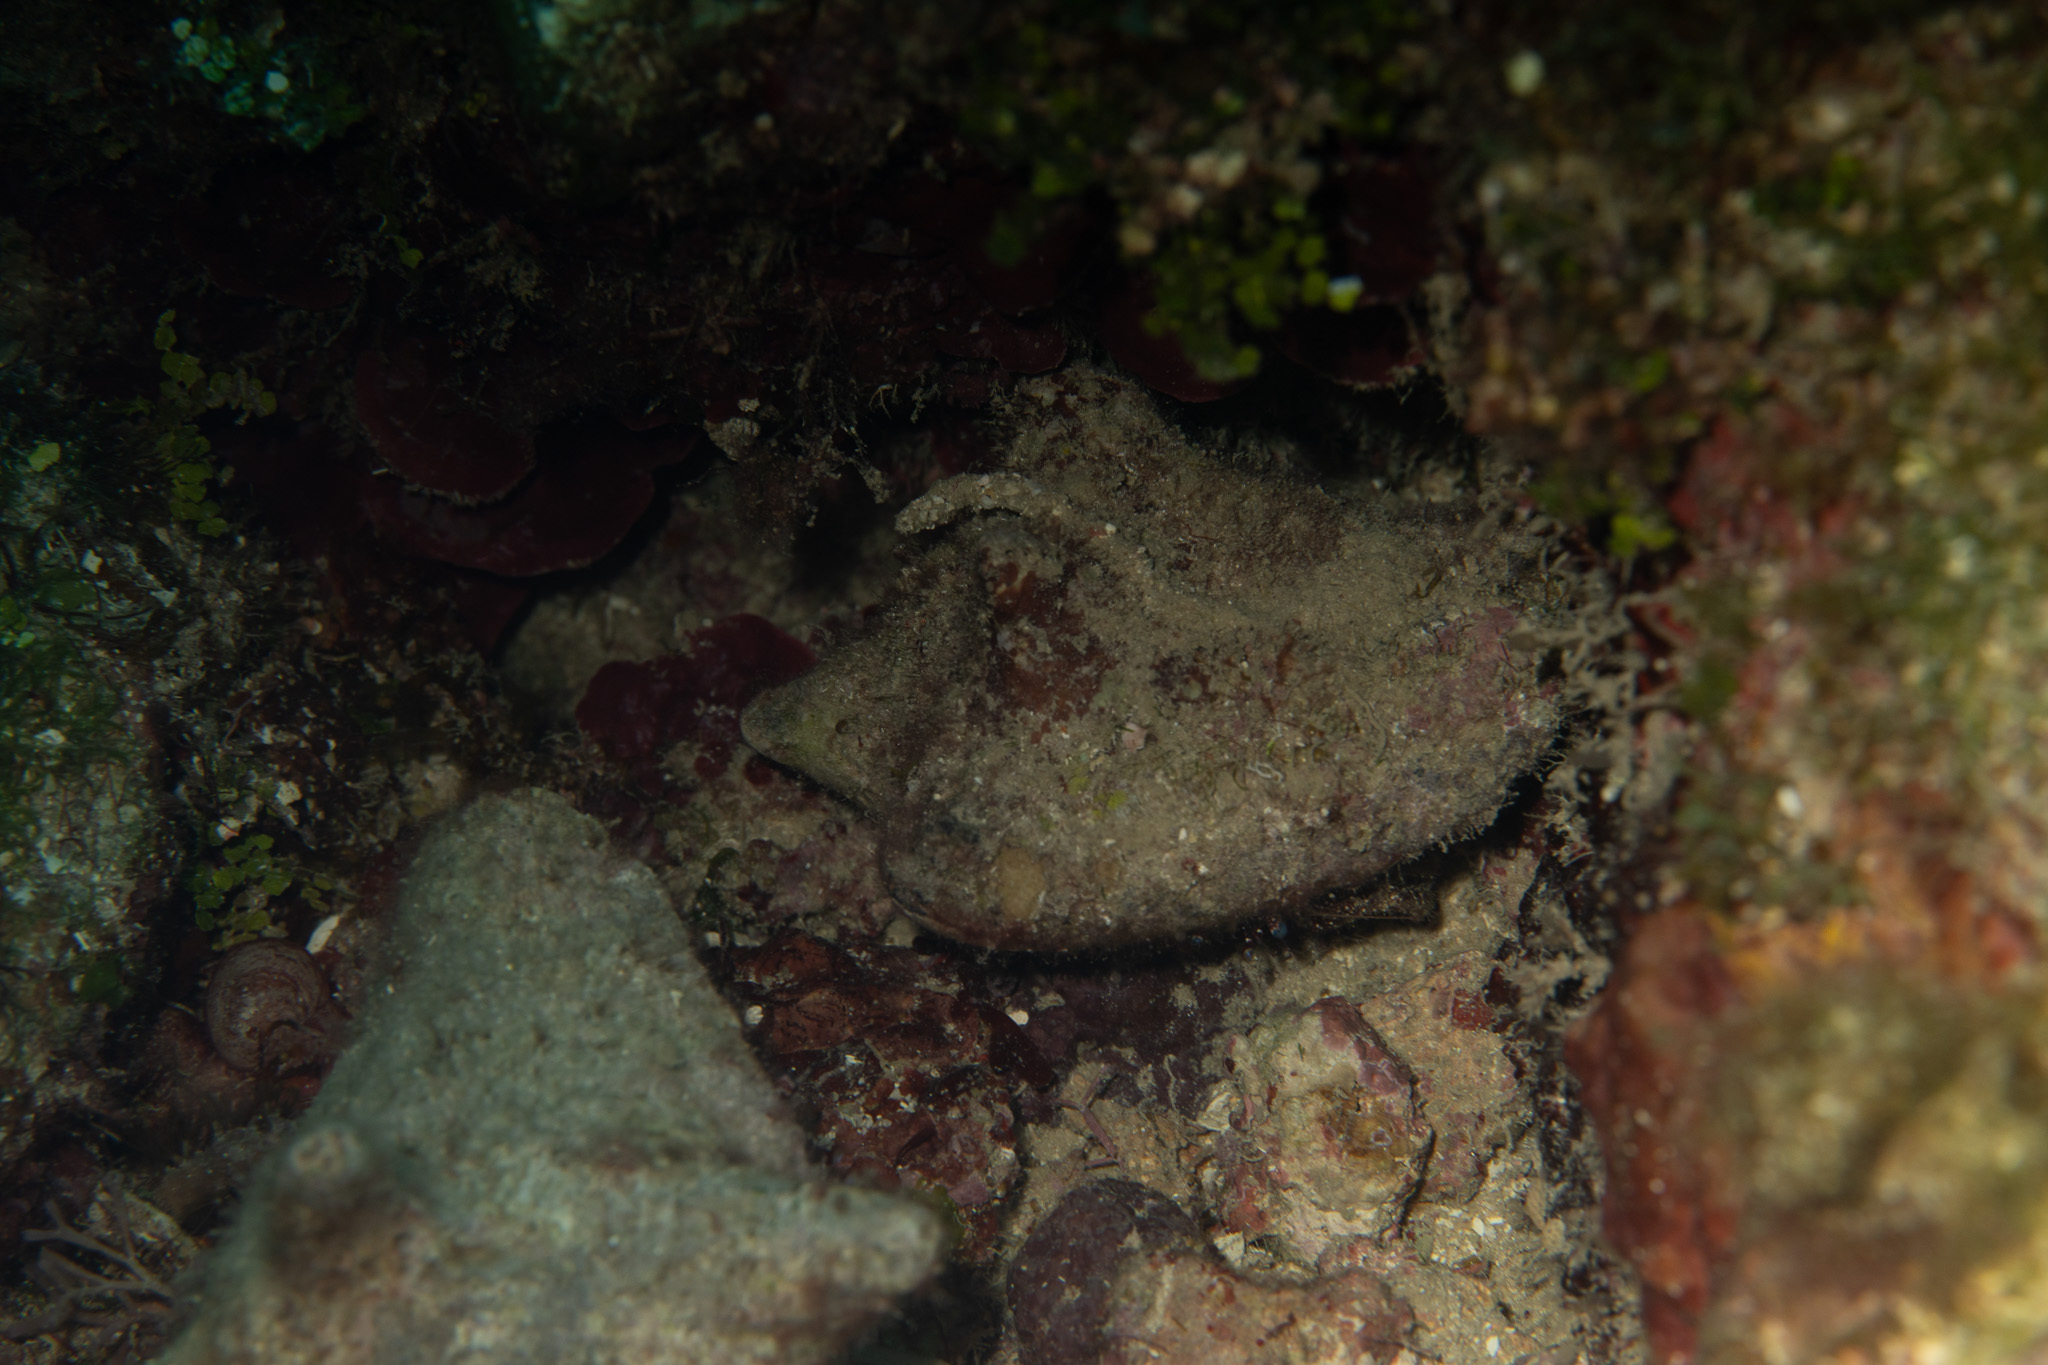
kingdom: Animalia
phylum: Mollusca
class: Gastropoda
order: Littorinimorpha
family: Strombidae
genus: Aliger
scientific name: Aliger gigas
